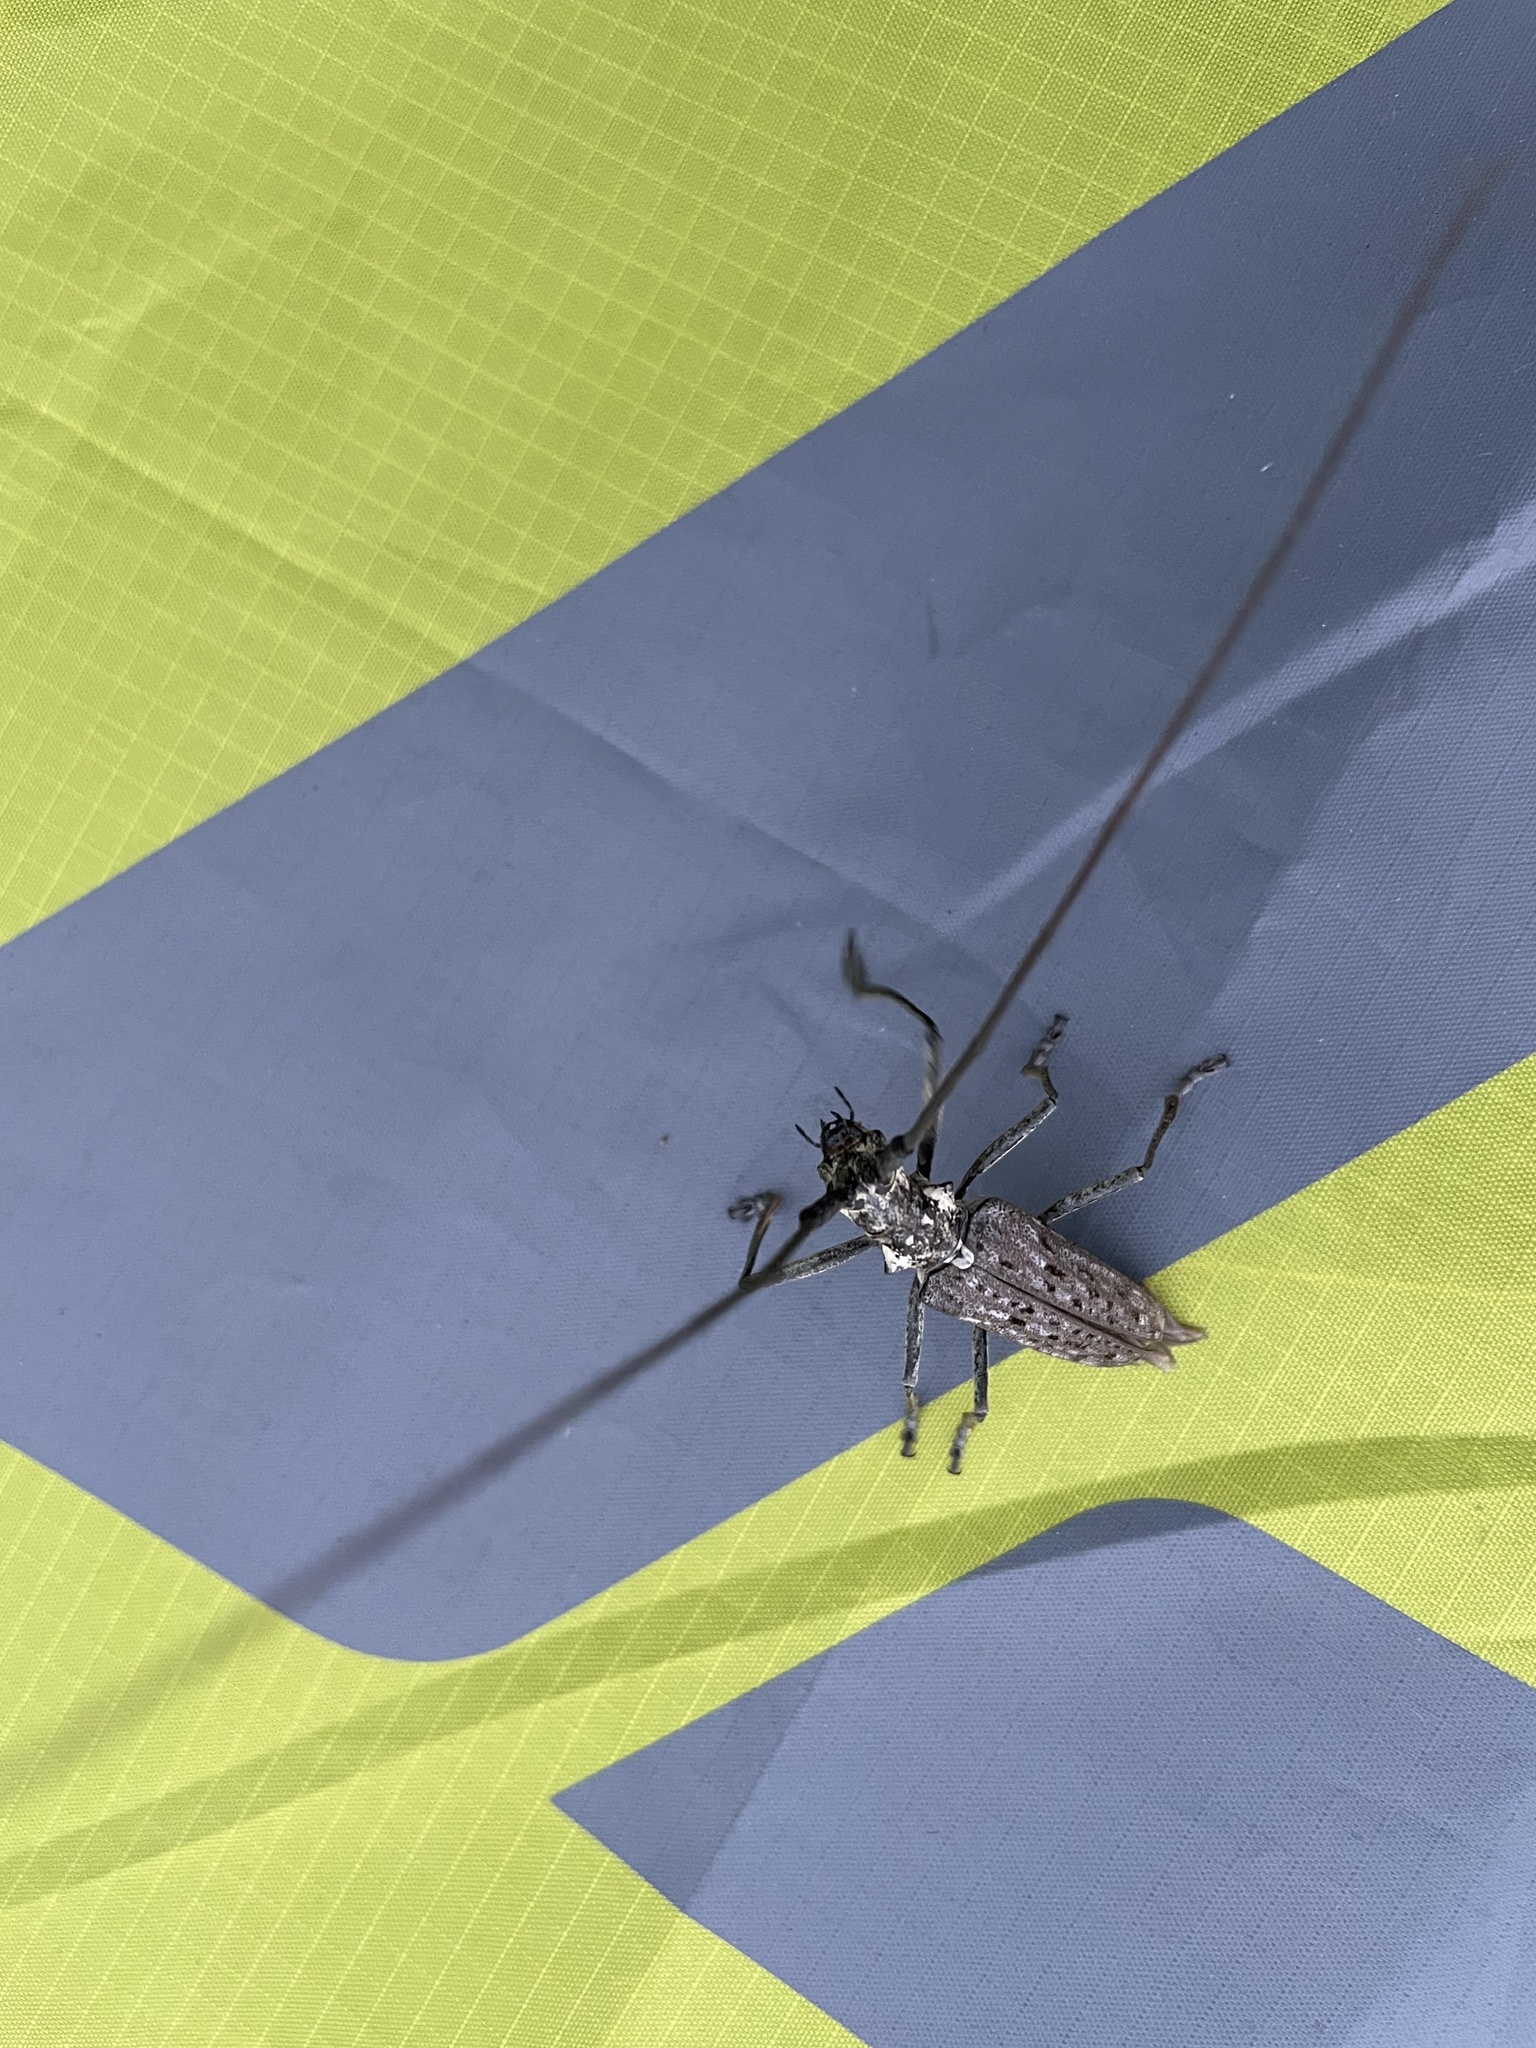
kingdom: Animalia
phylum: Arthropoda
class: Insecta
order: Coleoptera
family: Cerambycidae
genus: Monochamus
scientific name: Monochamus notatus
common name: Northeastern pine sawyer beetle
